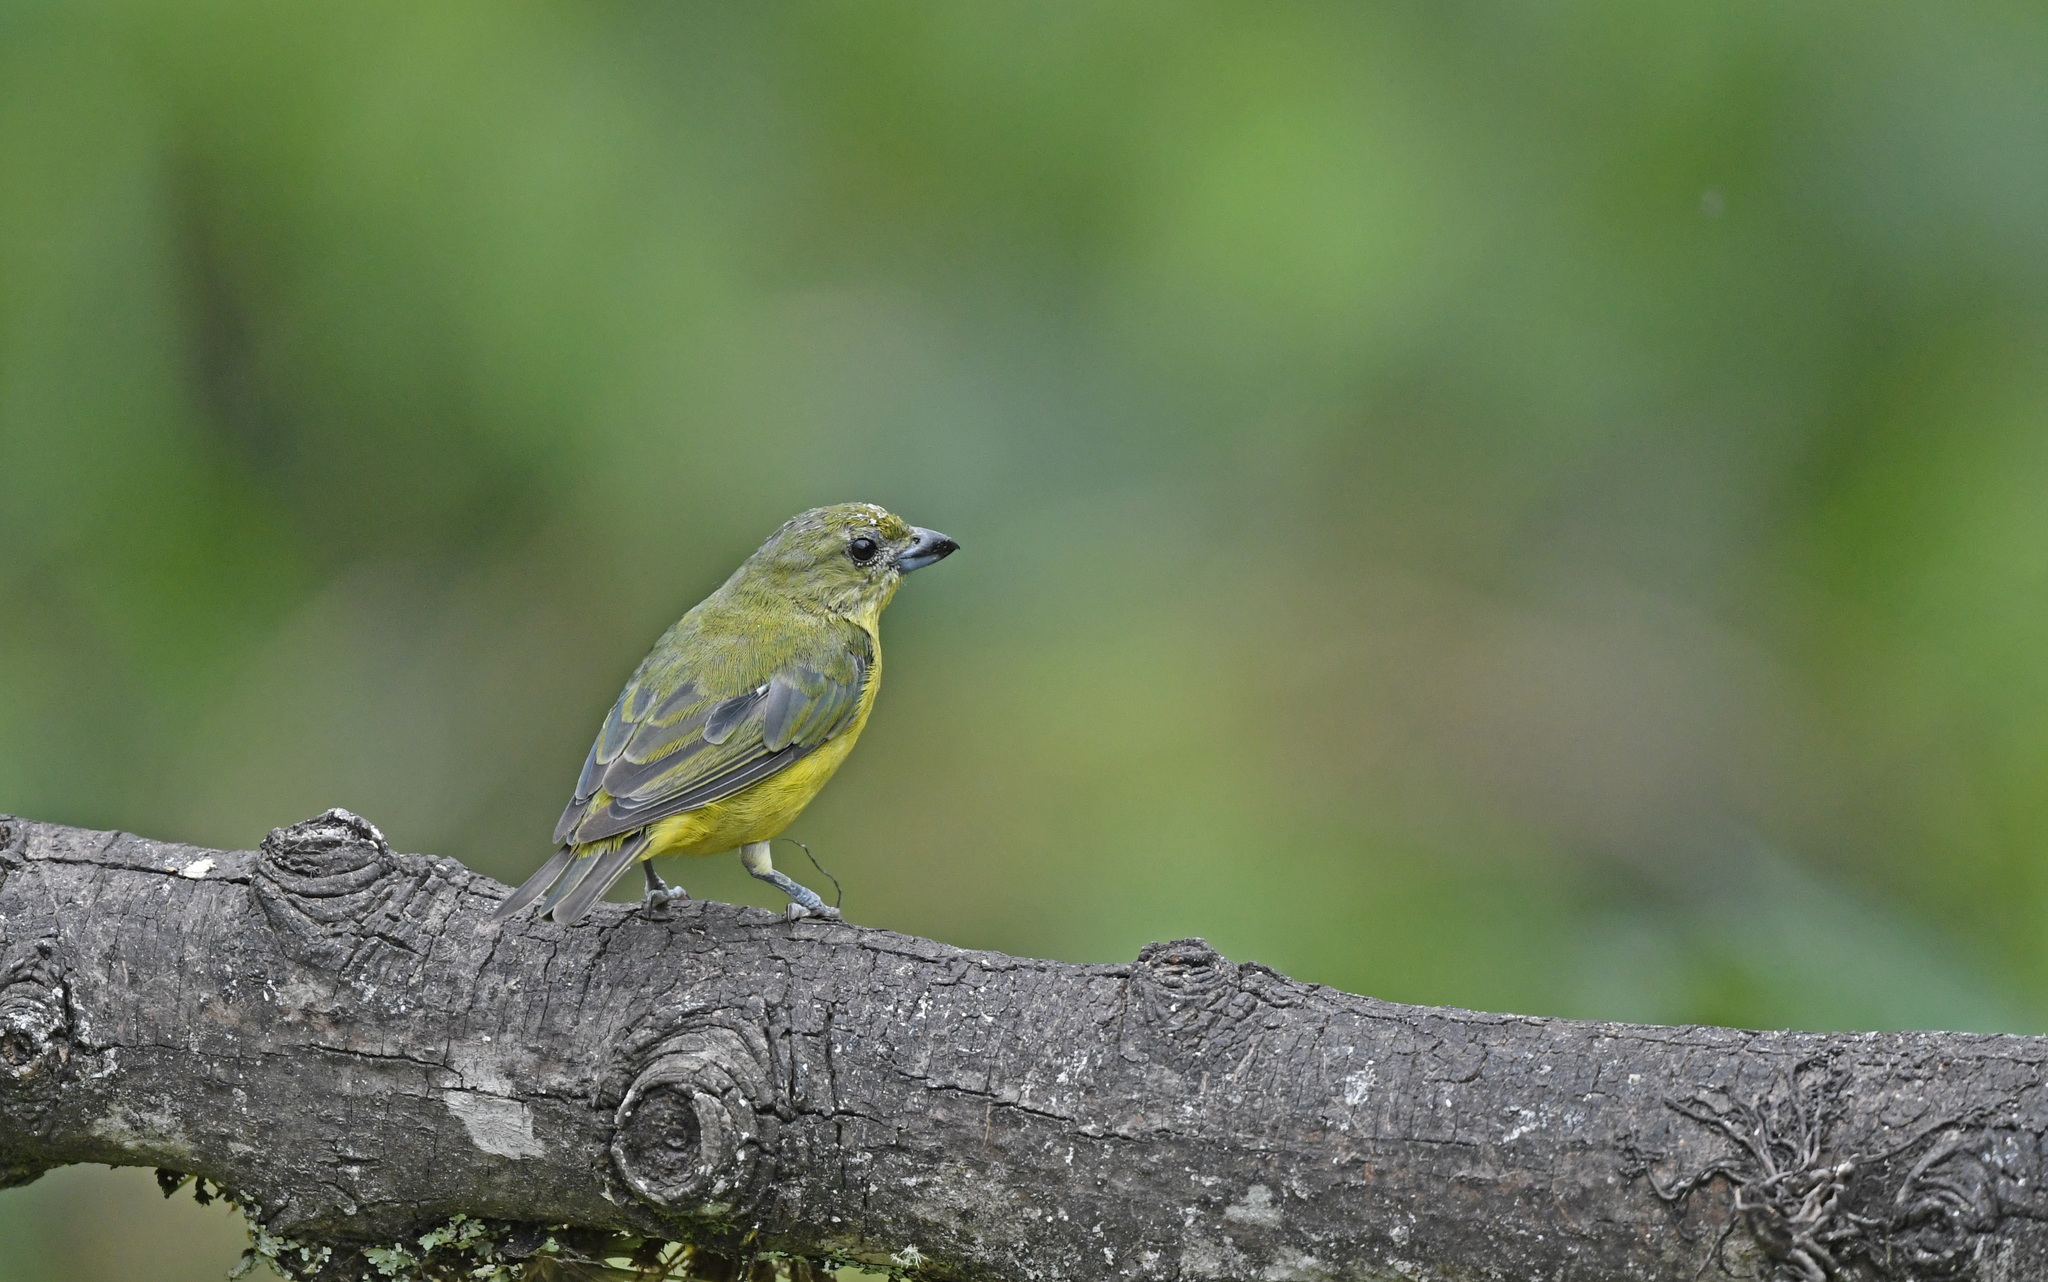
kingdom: Animalia
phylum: Chordata
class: Aves
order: Passeriformes
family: Fringillidae
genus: Euphonia
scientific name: Euphonia laniirostris
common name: Thick-billed euphonia
